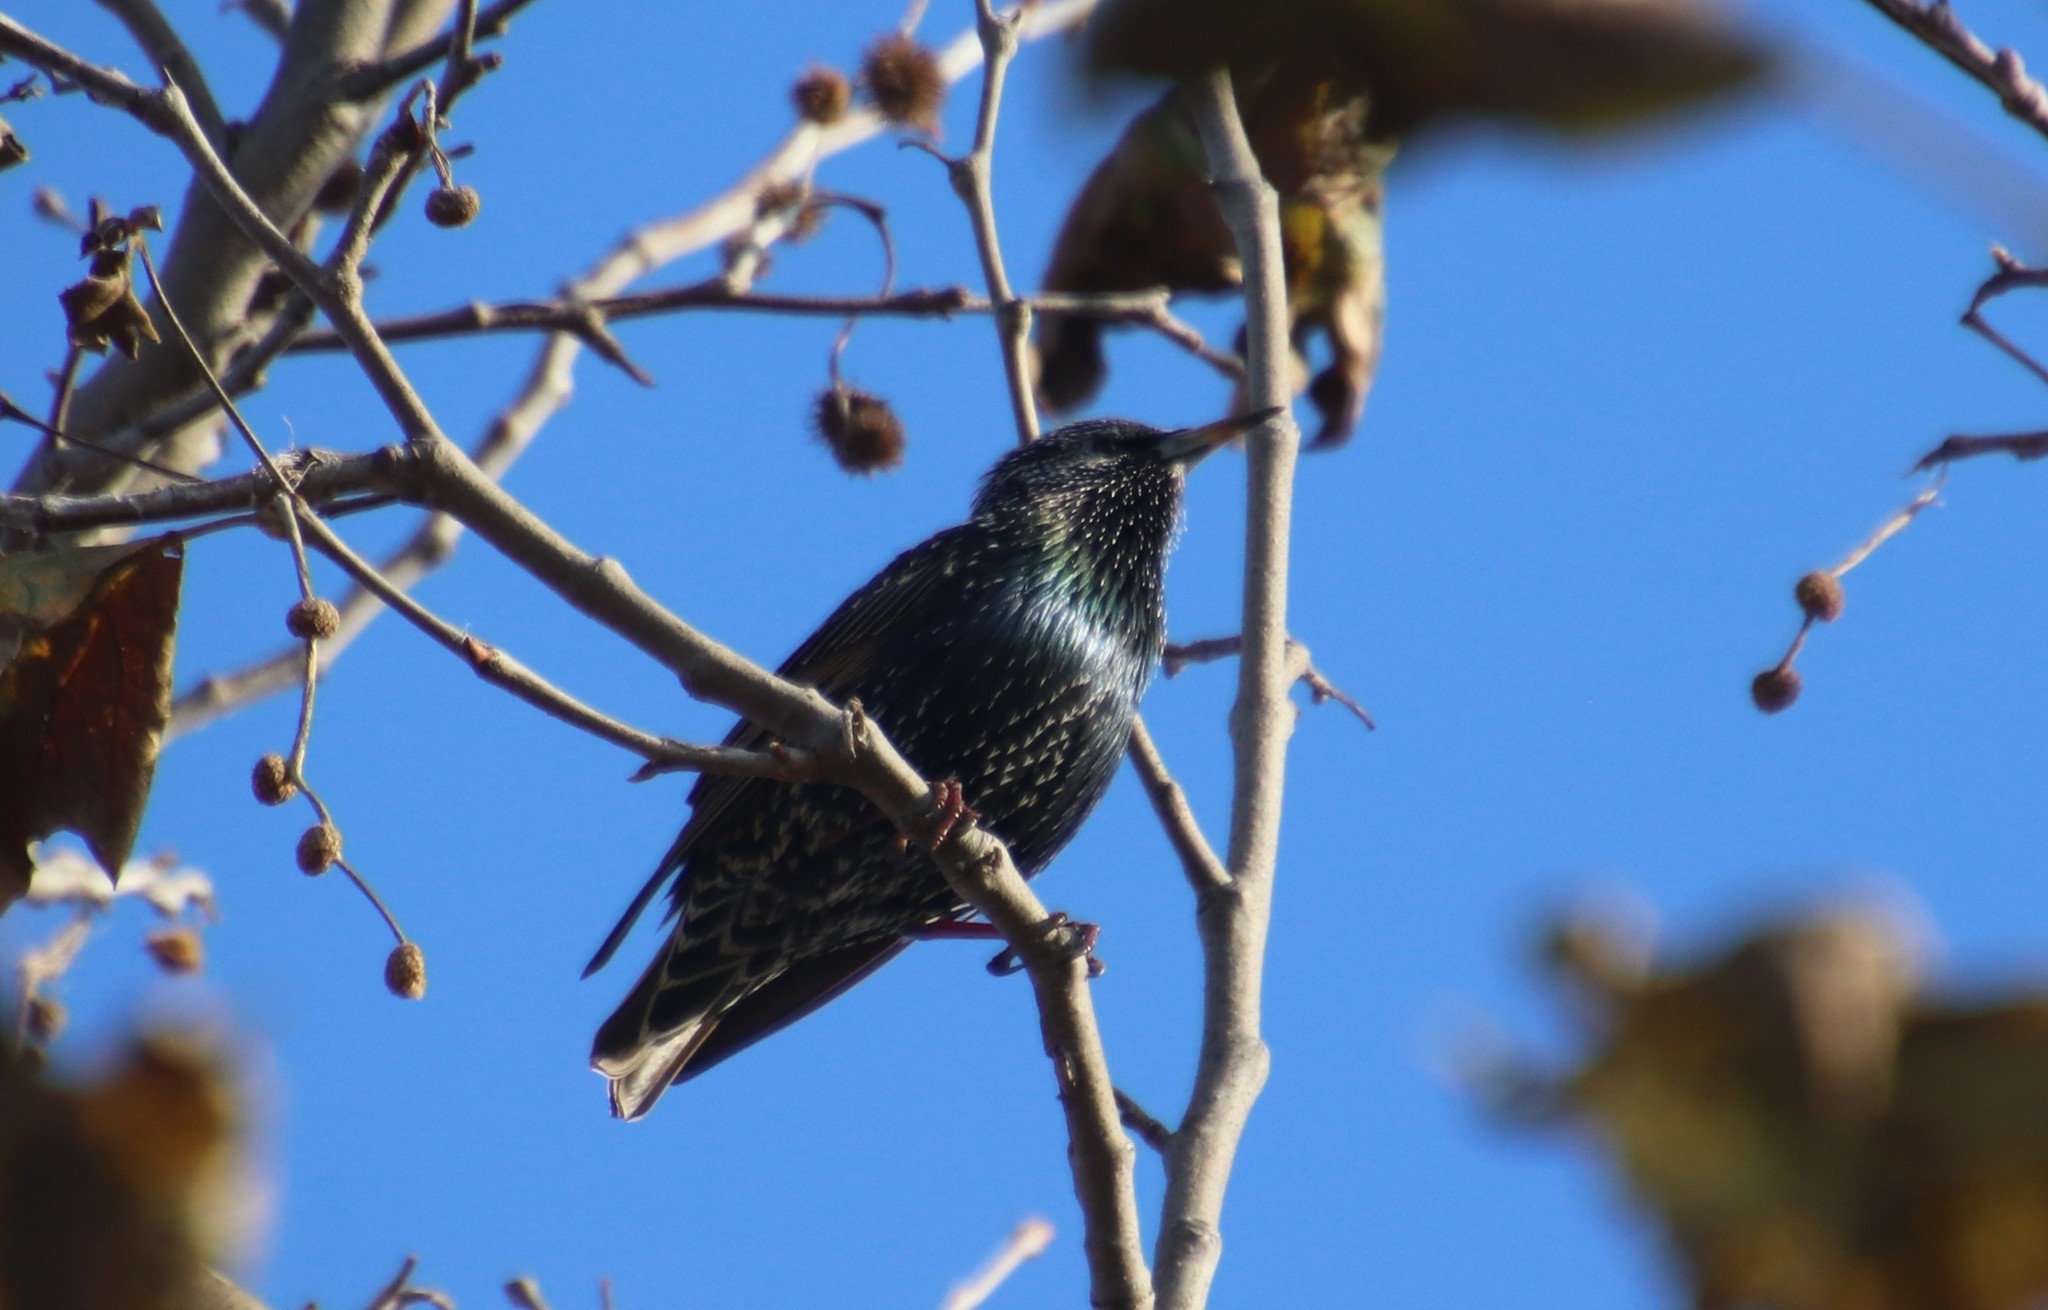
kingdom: Animalia
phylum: Chordata
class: Aves
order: Passeriformes
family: Sturnidae
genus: Sturnus
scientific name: Sturnus vulgaris
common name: Common starling
